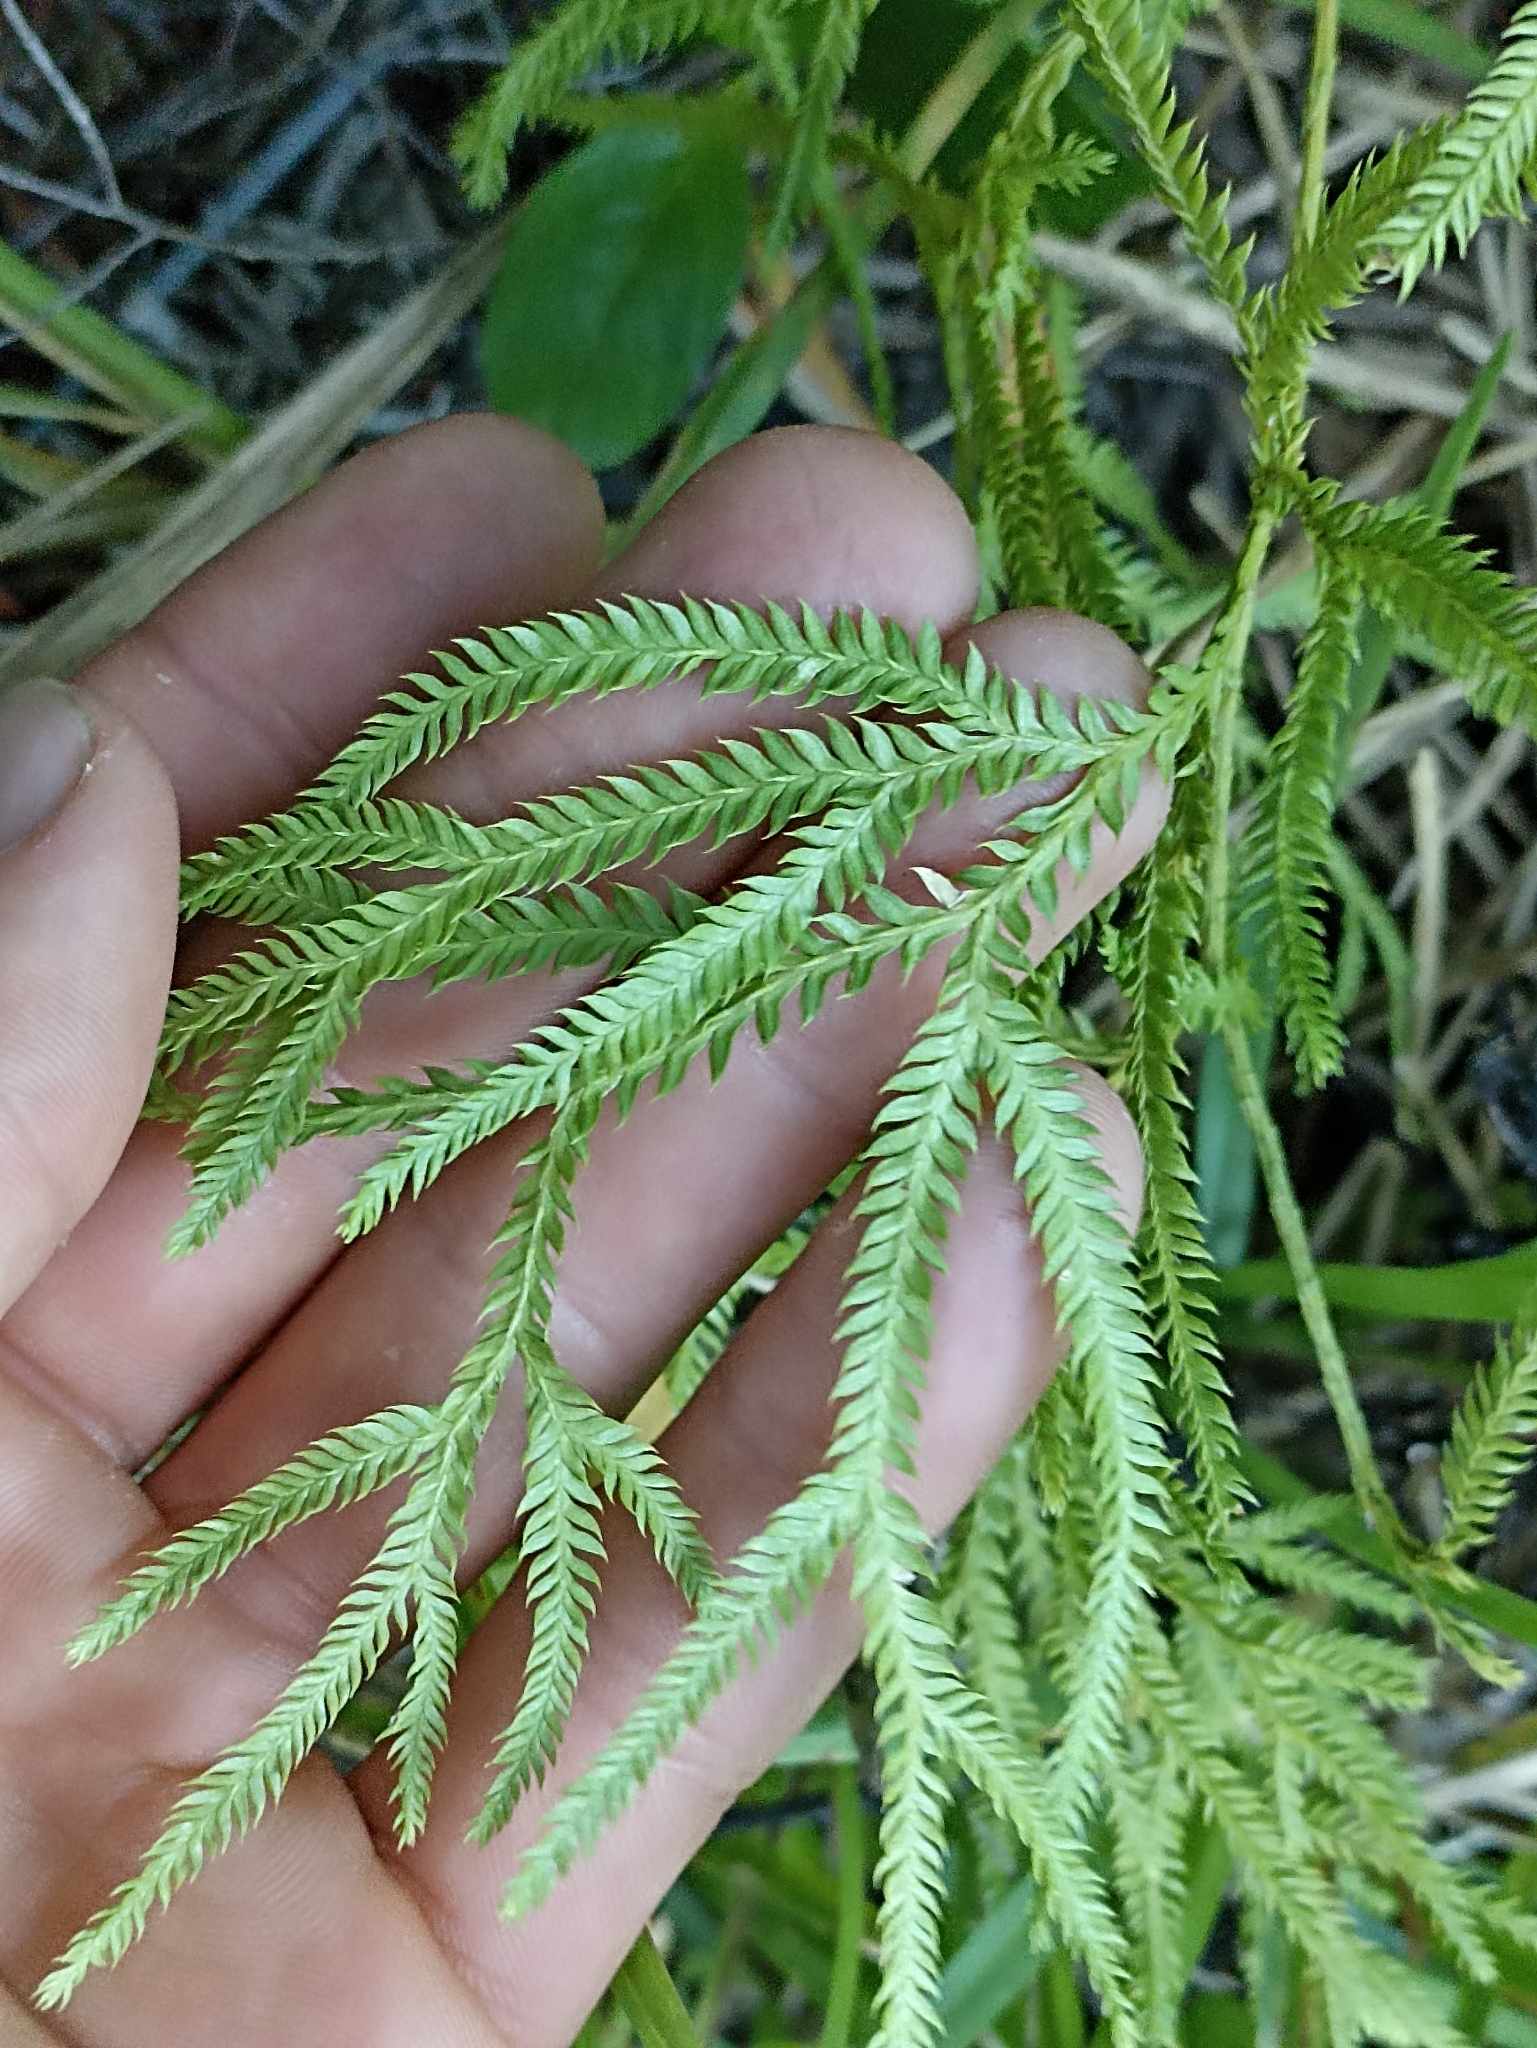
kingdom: Plantae
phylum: Tracheophyta
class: Lycopodiopsida
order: Lycopodiales
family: Lycopodiaceae
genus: Lycopodium
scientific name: Lycopodium volubile
